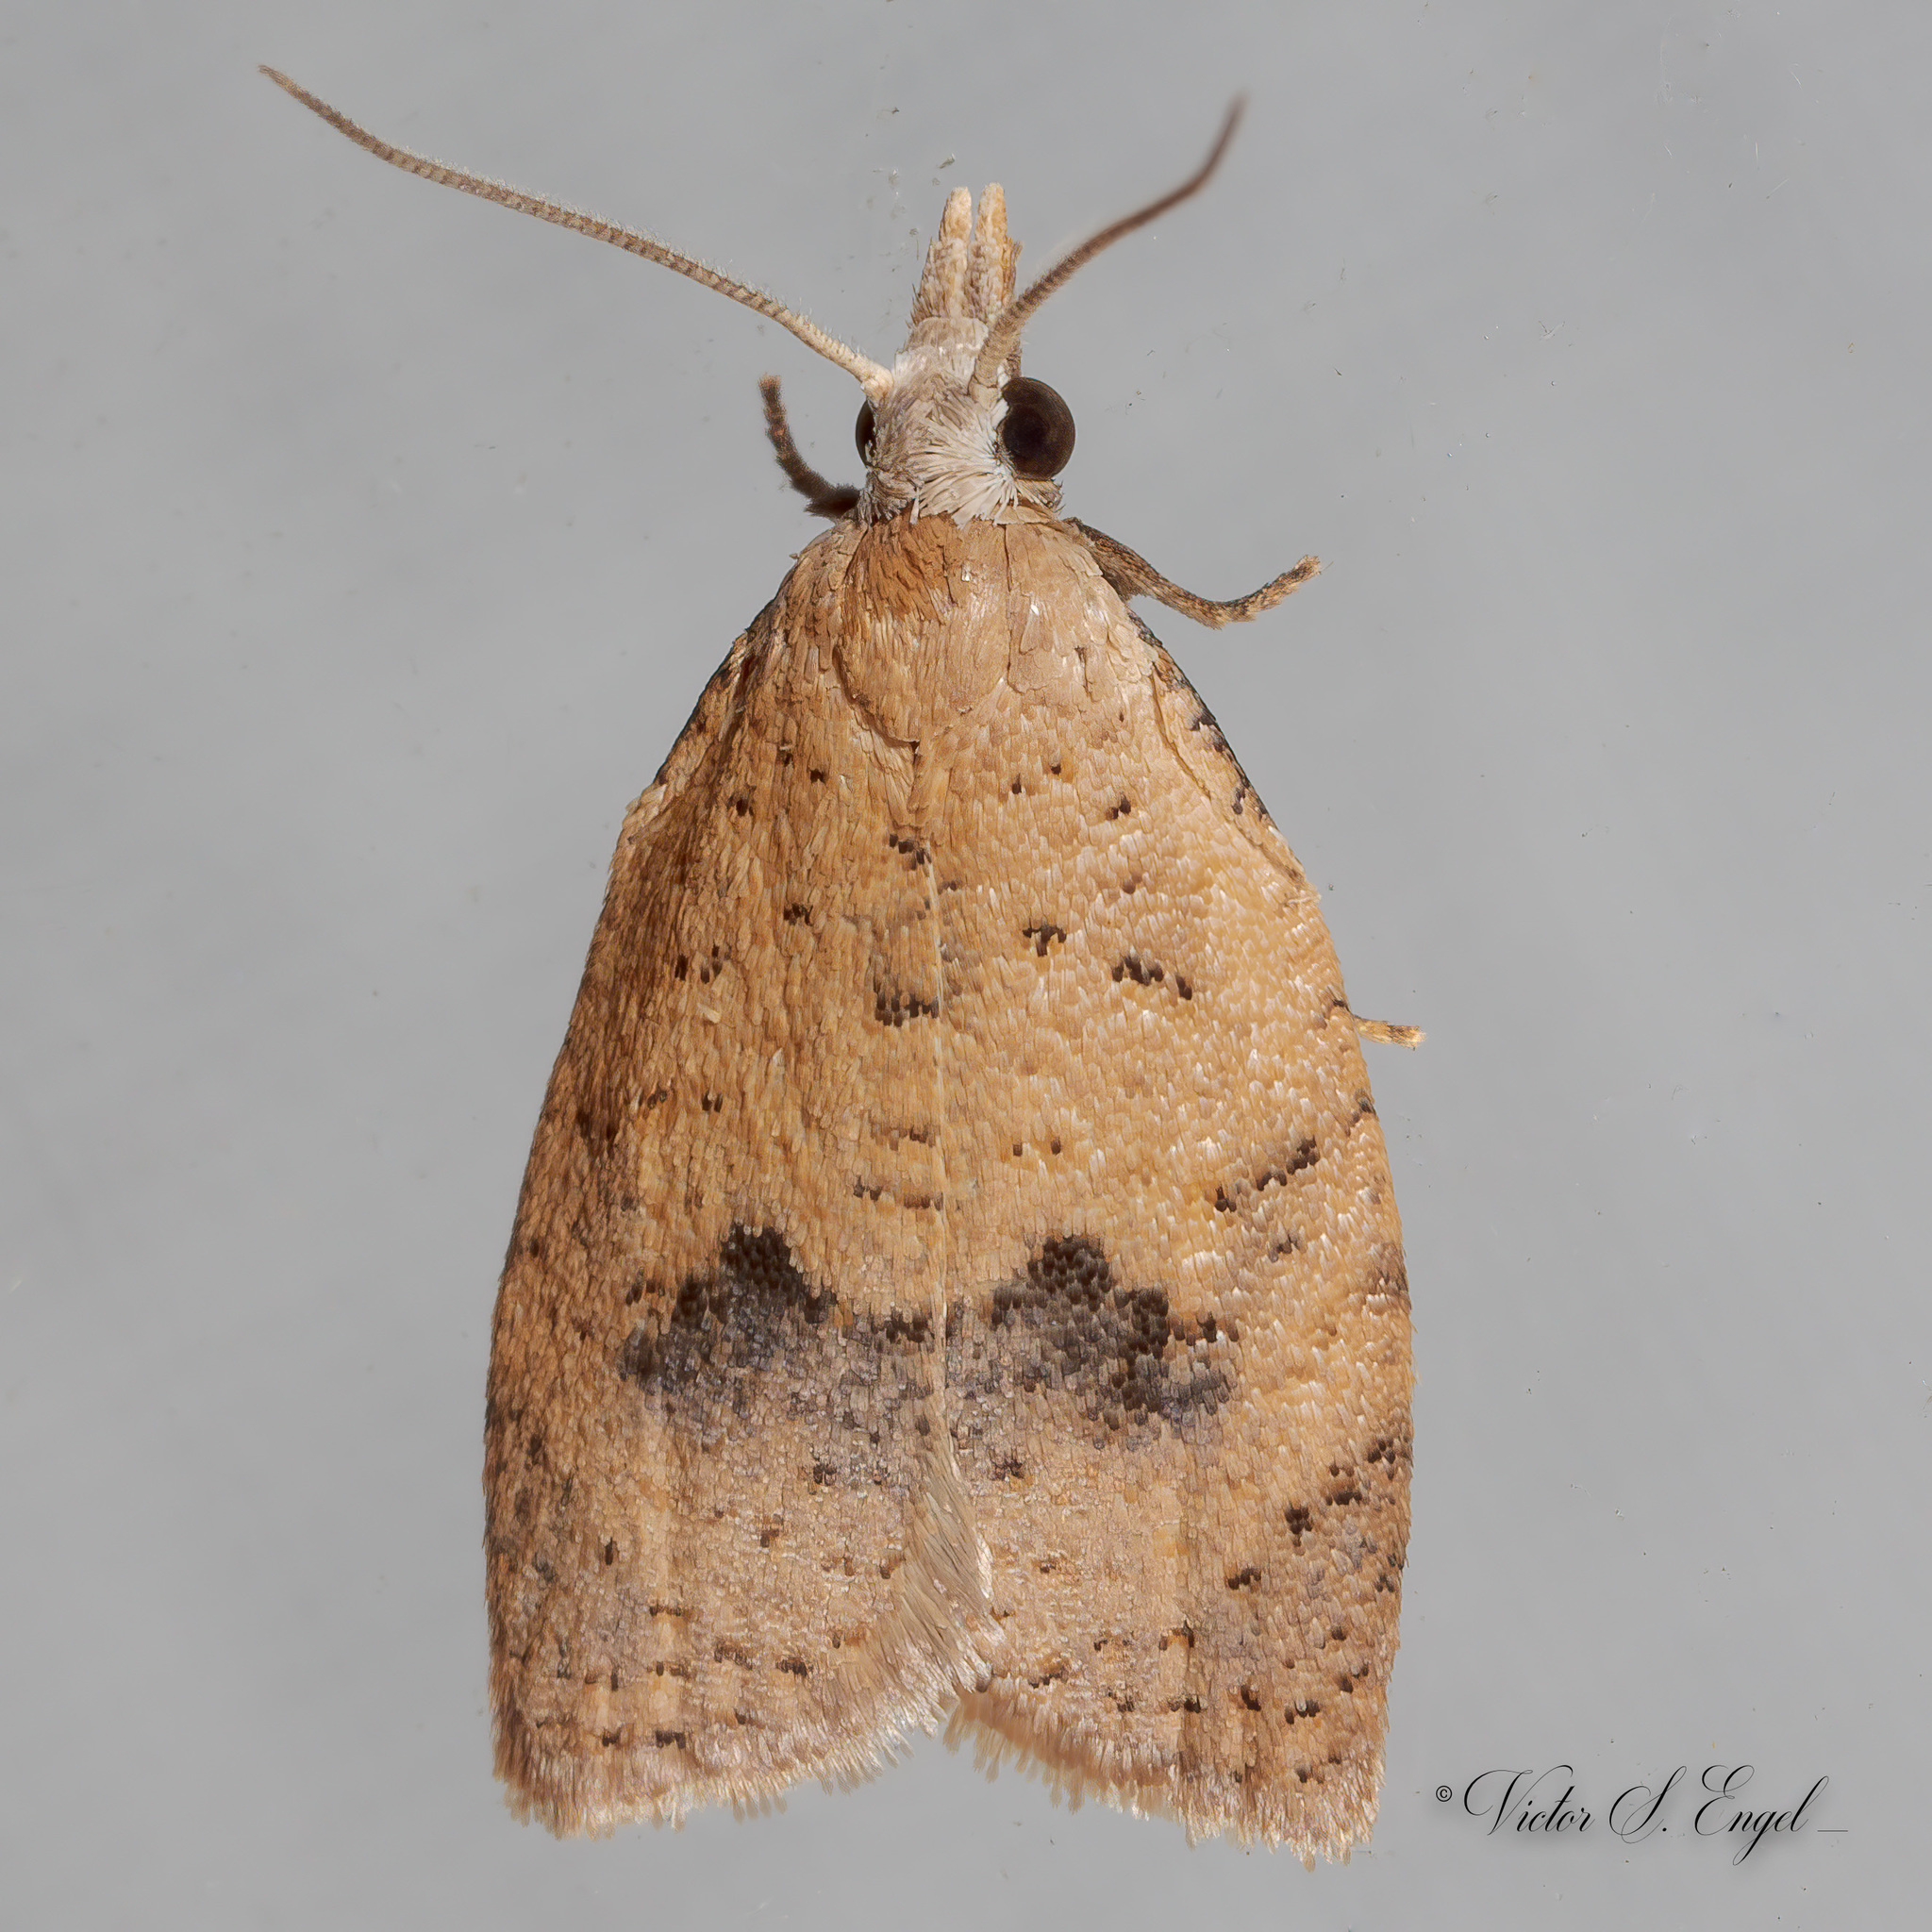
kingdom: Animalia
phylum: Arthropoda
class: Insecta
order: Lepidoptera
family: Tortricidae
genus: Sparganothoides
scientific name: Sparganothoides lentiginosana
